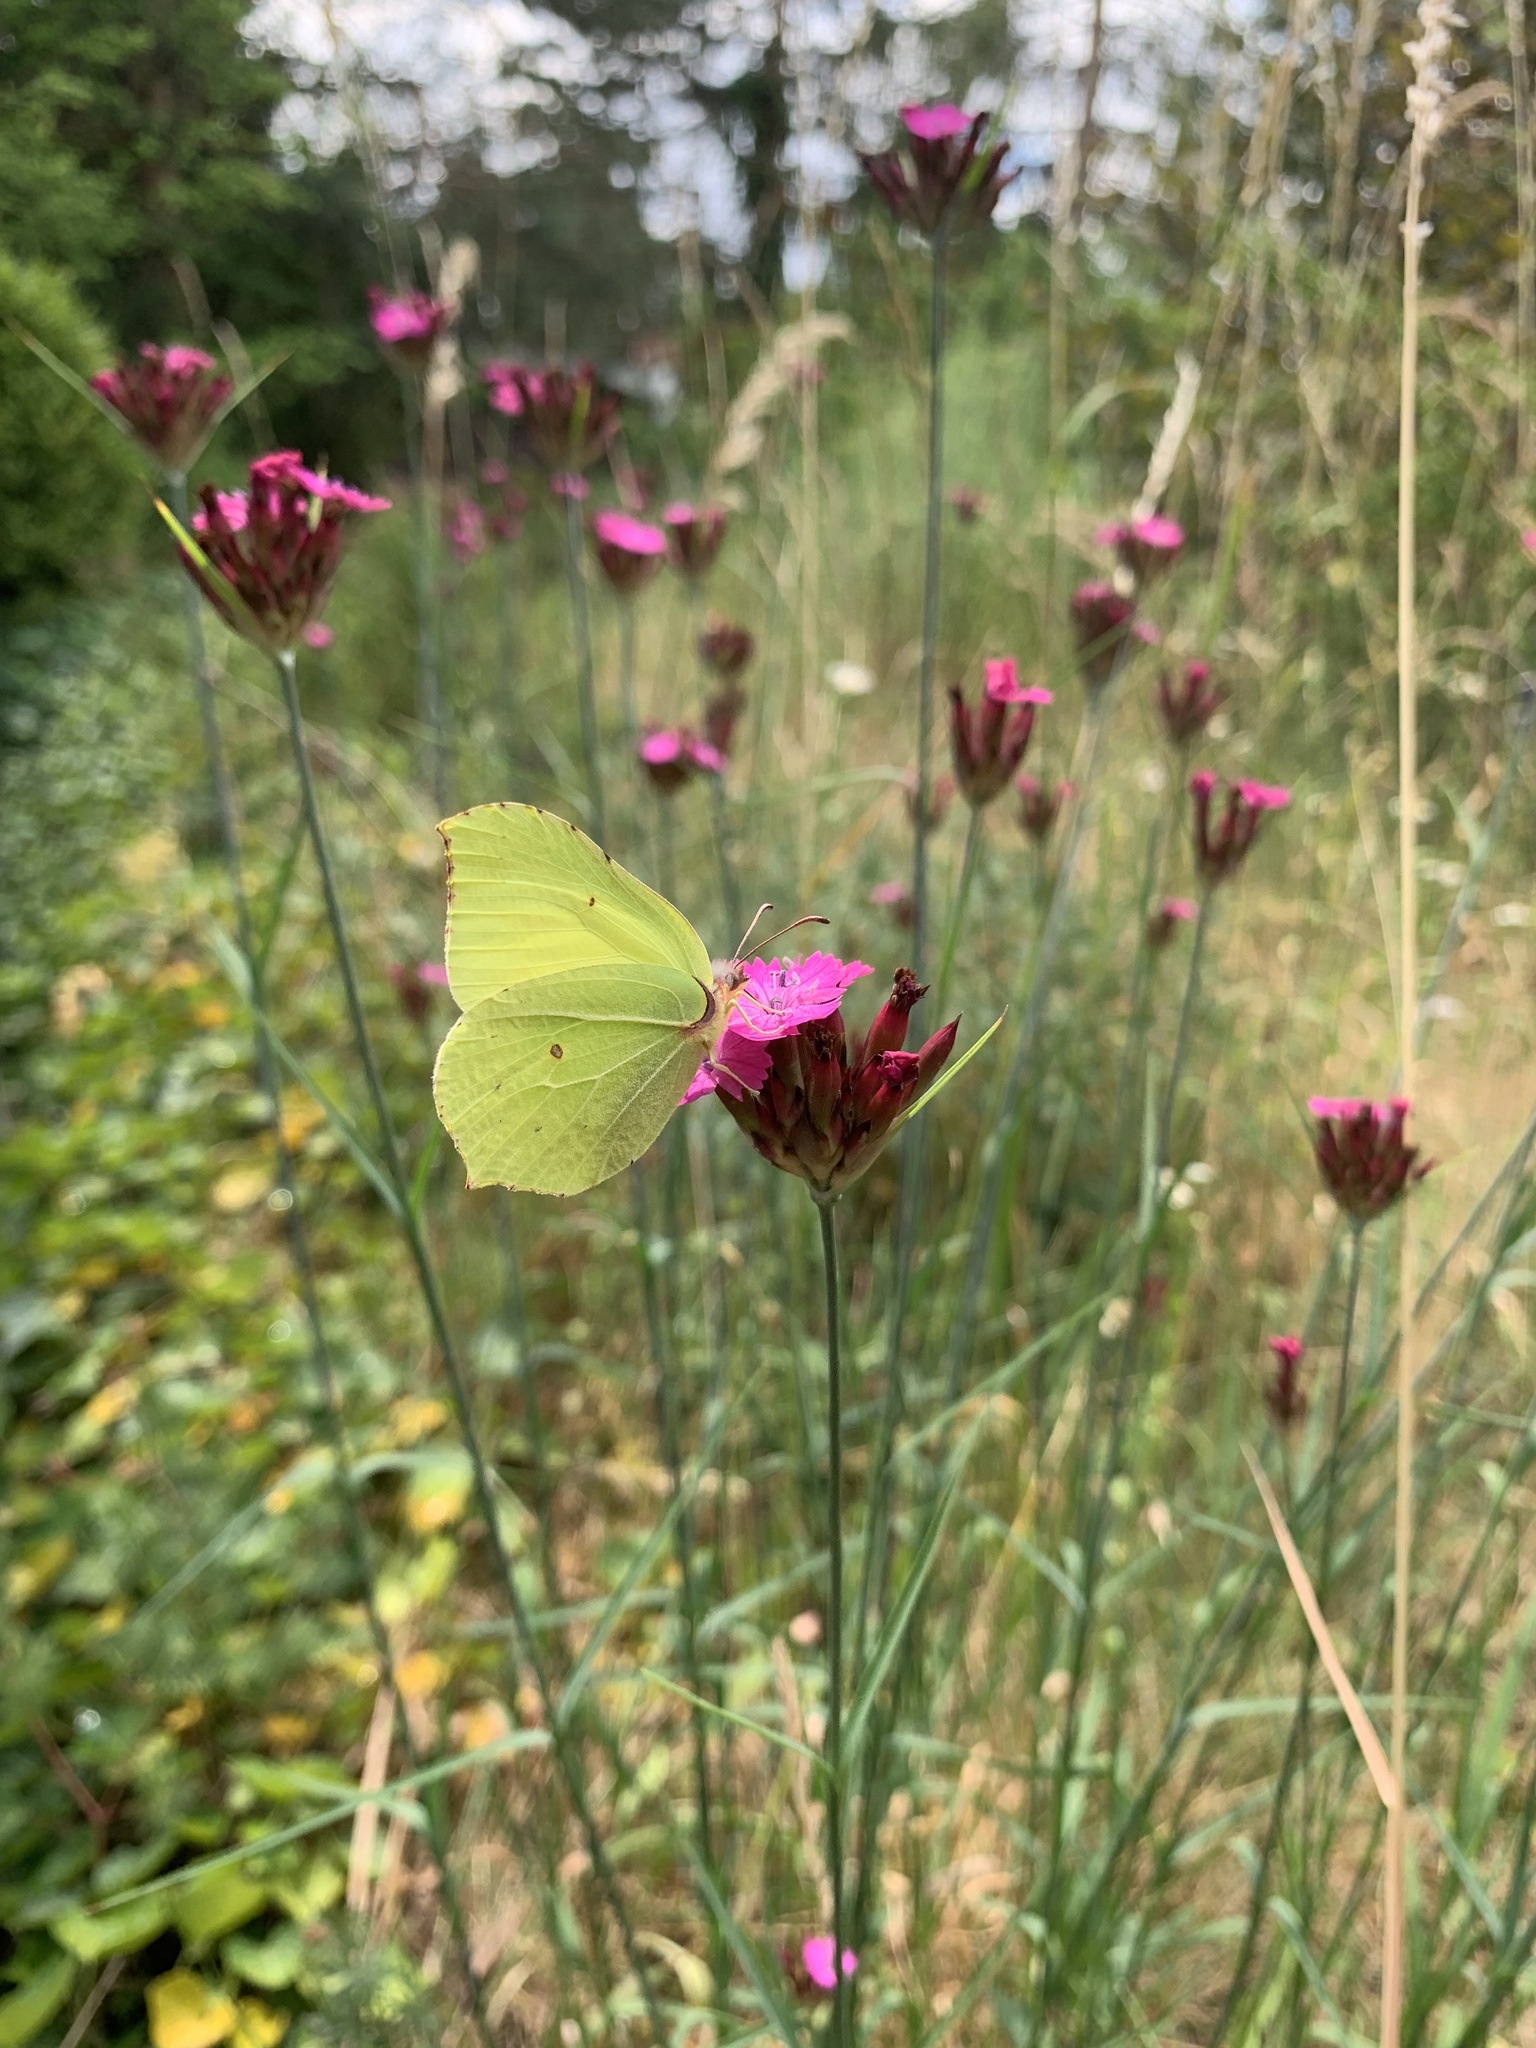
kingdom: Animalia
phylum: Arthropoda
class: Insecta
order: Lepidoptera
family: Pieridae
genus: Gonepteryx
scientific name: Gonepteryx rhamni
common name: Brimstone
